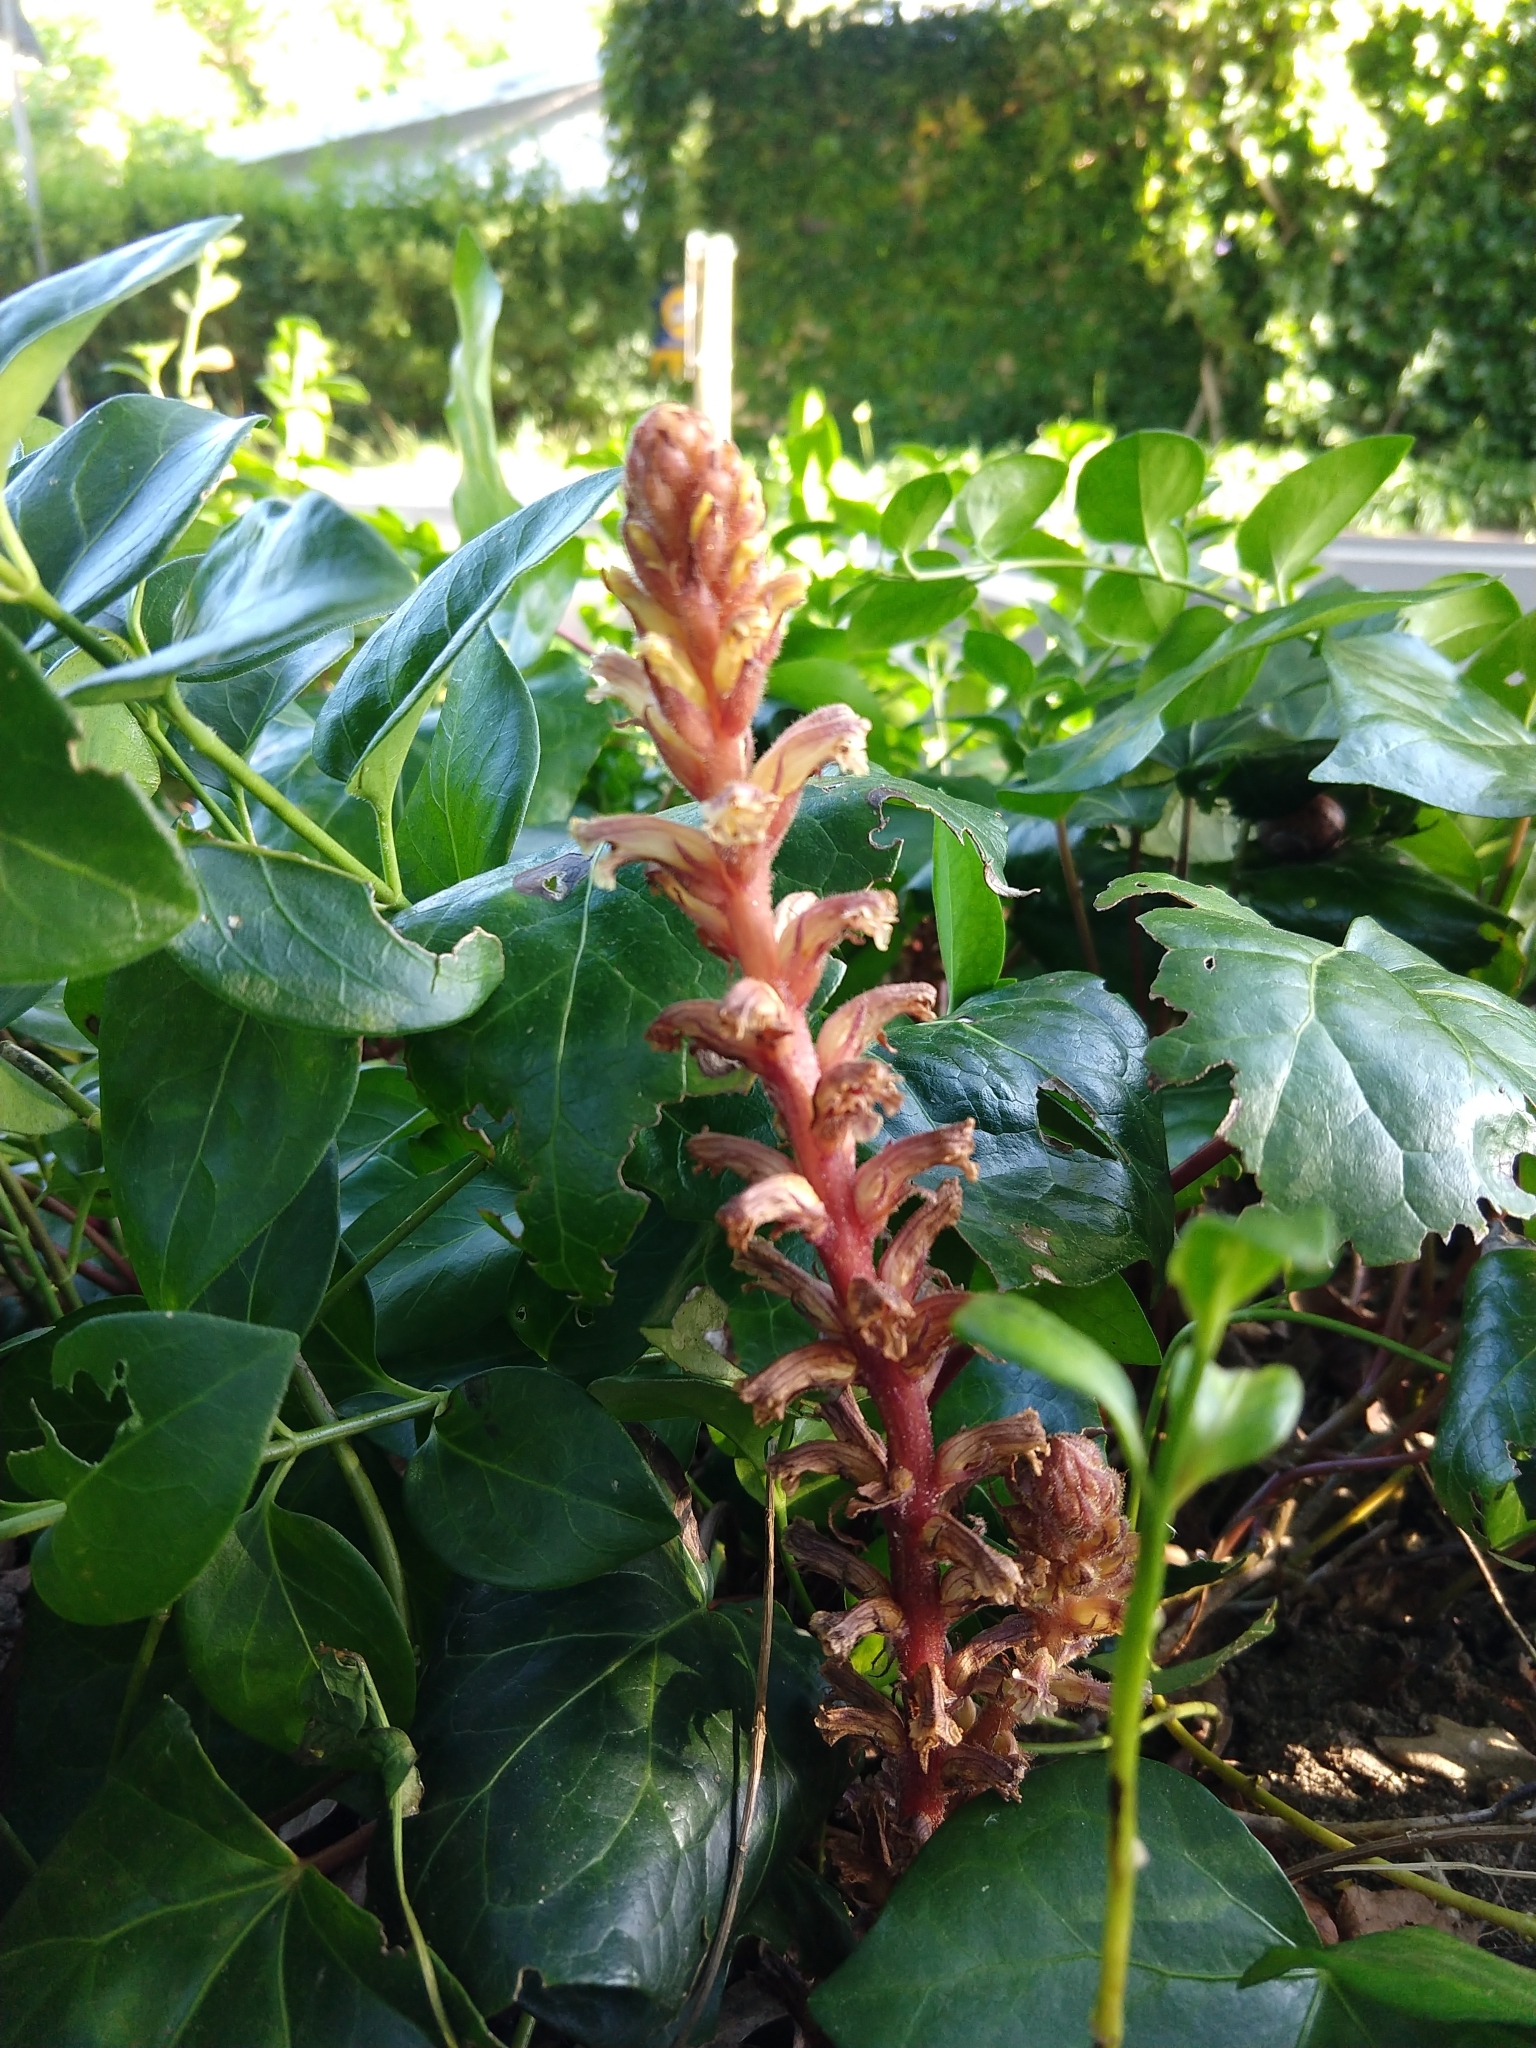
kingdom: Plantae
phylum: Tracheophyta
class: Magnoliopsida
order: Lamiales
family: Orobanchaceae
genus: Orobanche
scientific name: Orobanche hederae
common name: Ivy broomrape
